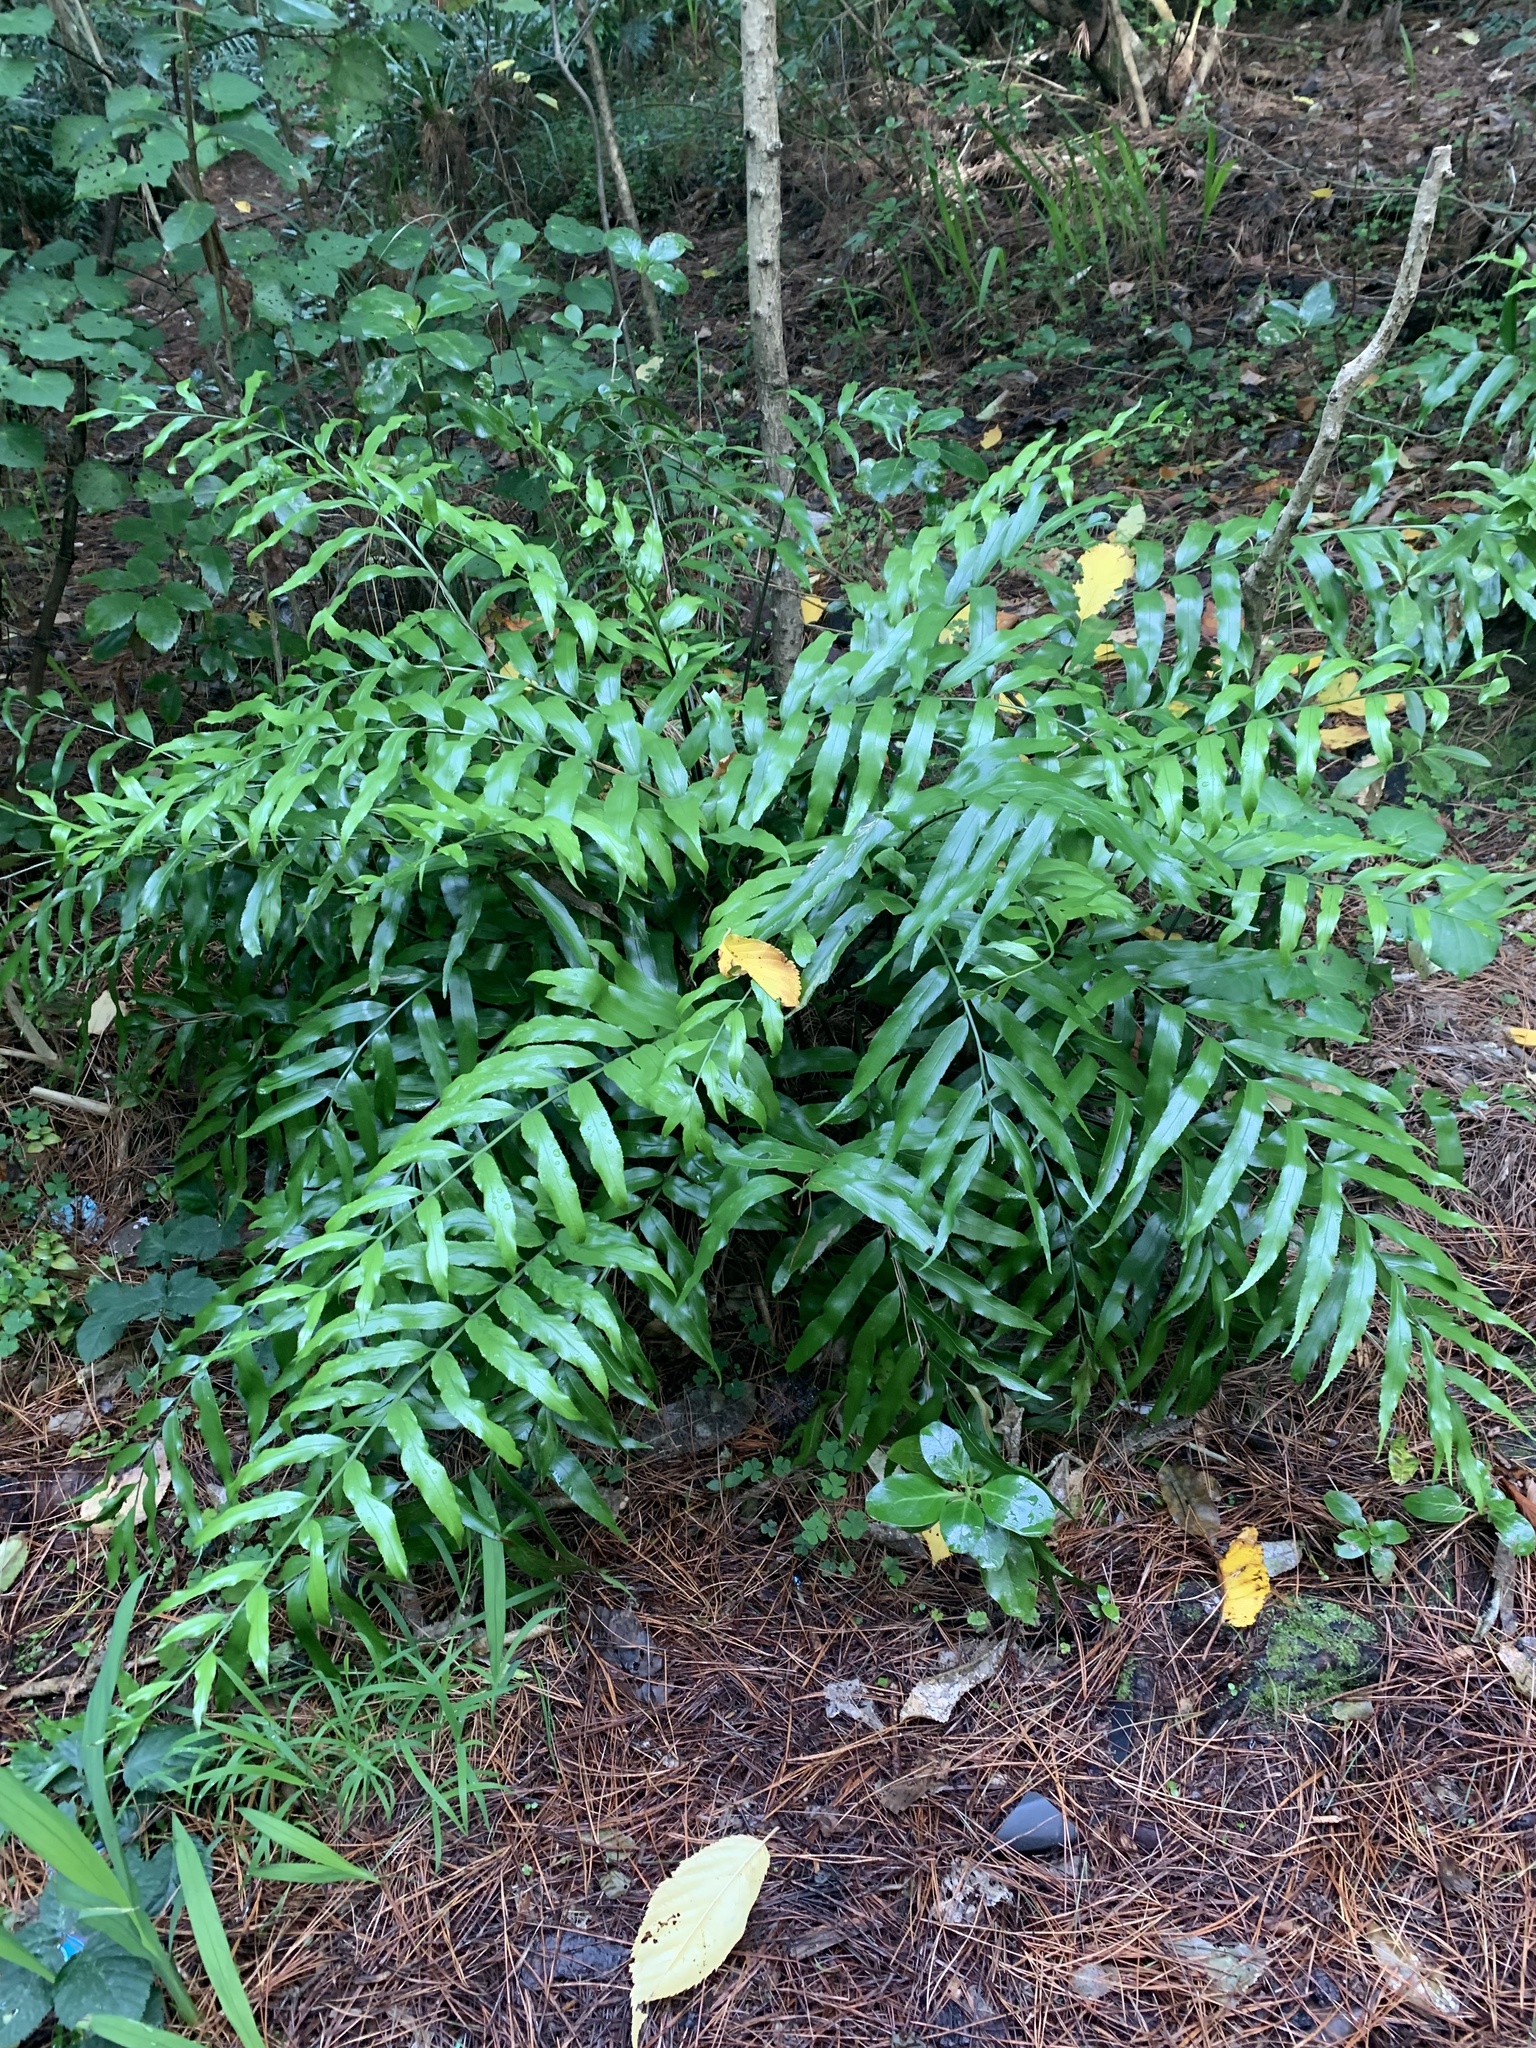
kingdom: Plantae
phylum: Tracheophyta
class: Polypodiopsida
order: Polypodiales
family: Aspleniaceae
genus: Asplenium
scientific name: Asplenium oblongifolium
